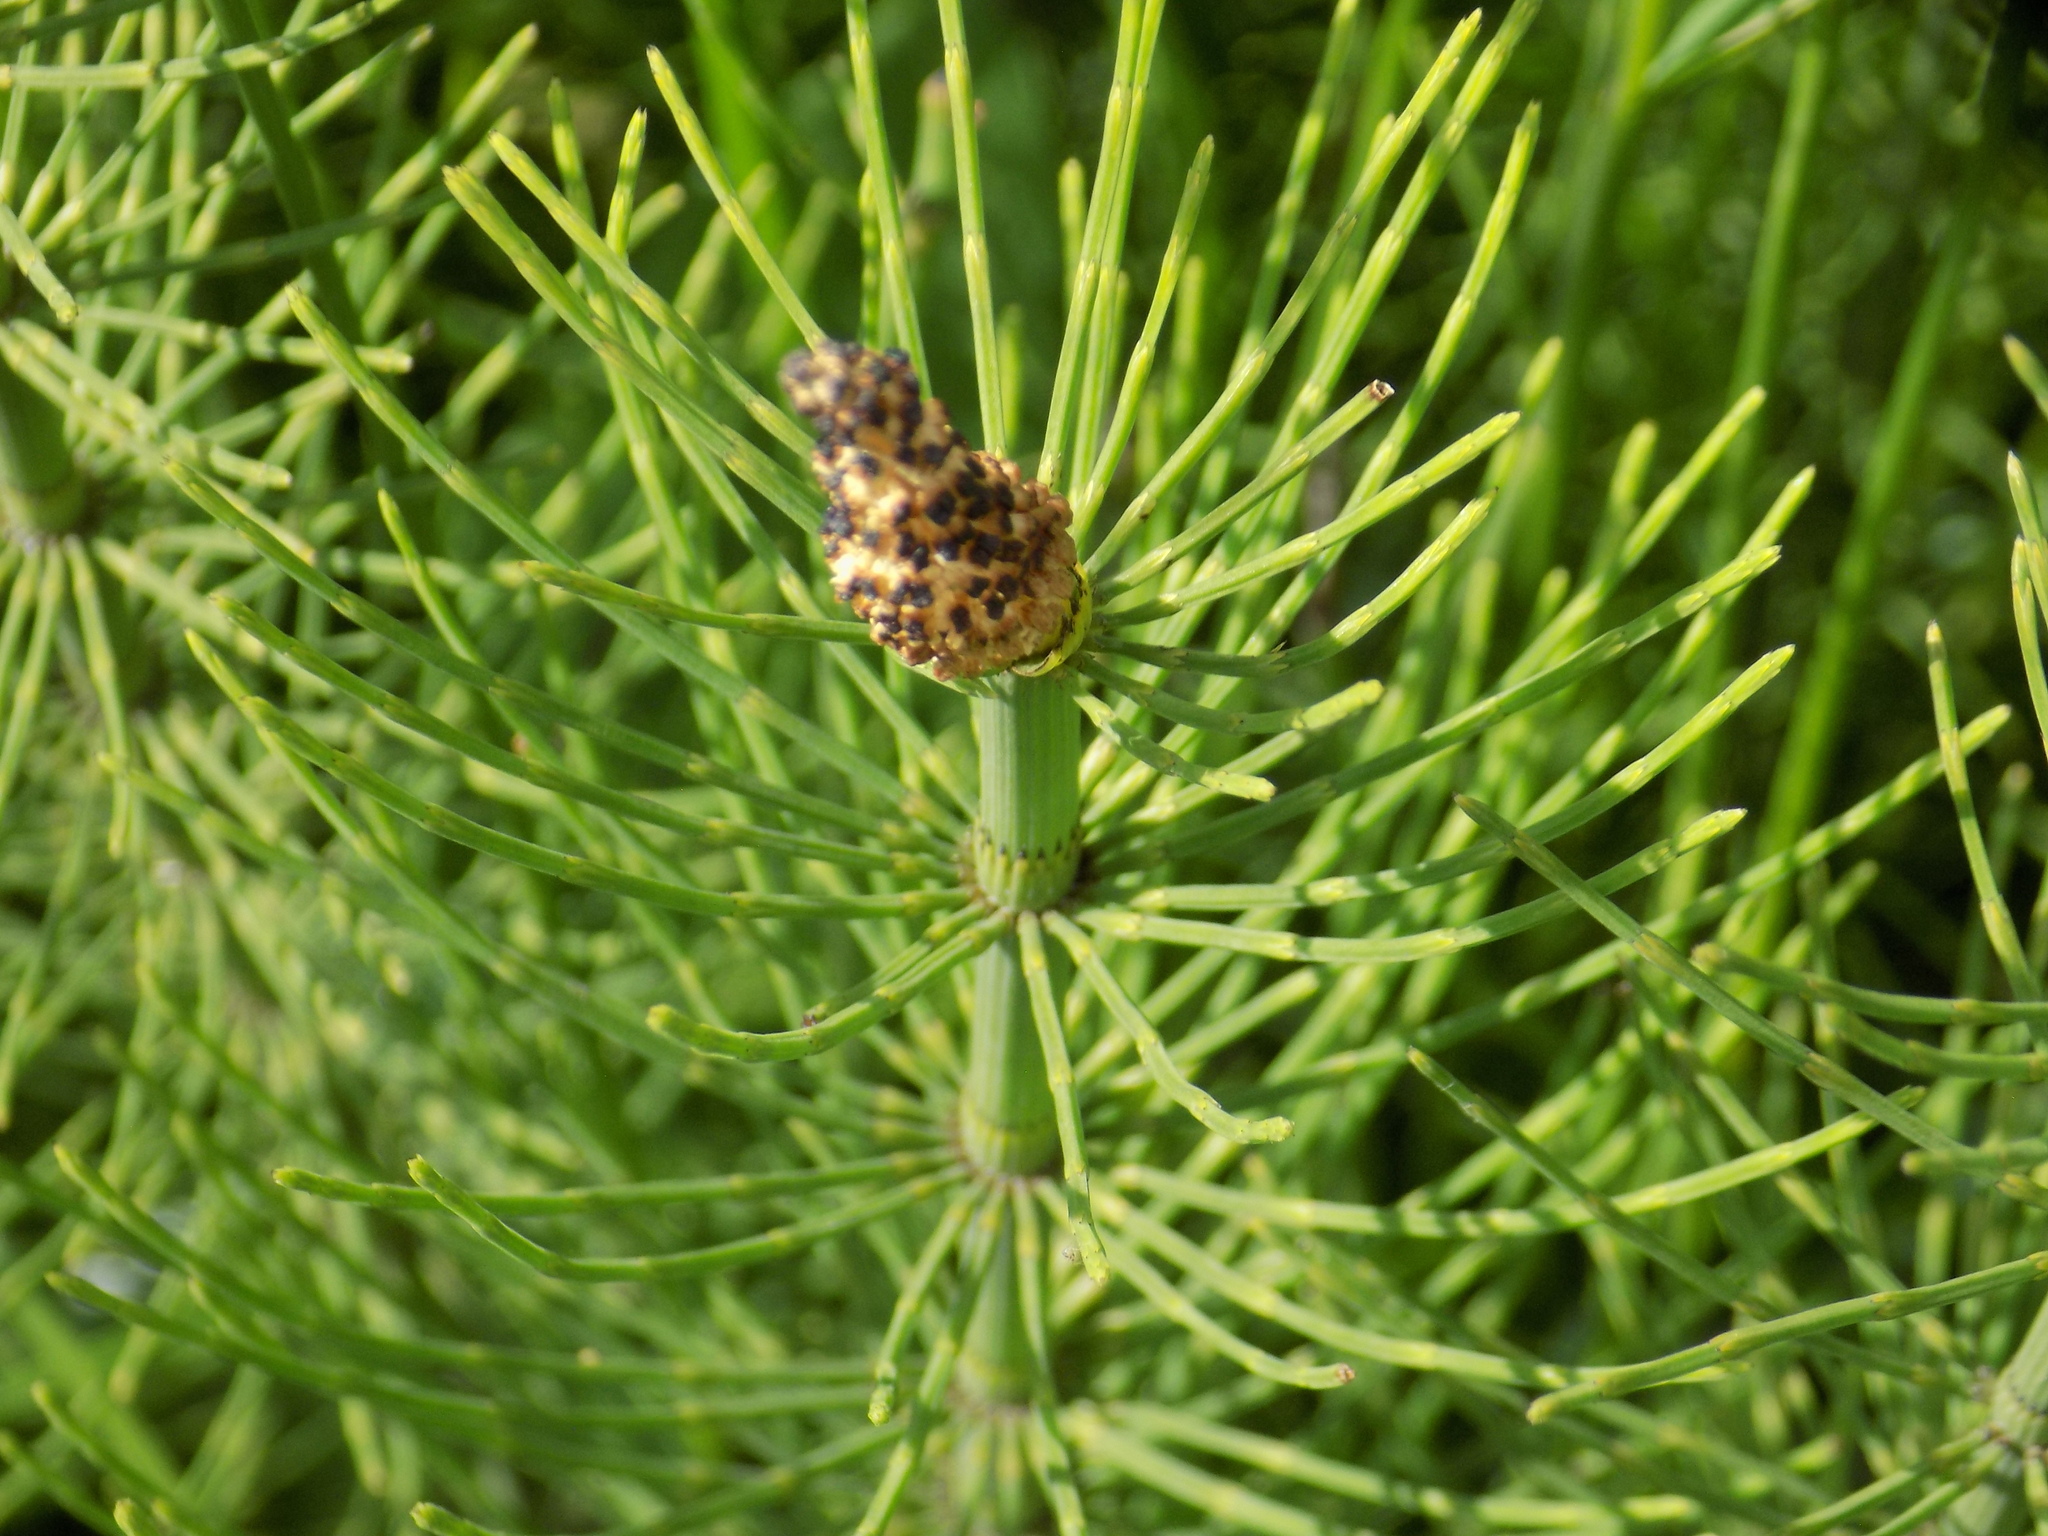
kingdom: Plantae
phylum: Tracheophyta
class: Polypodiopsida
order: Equisetales
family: Equisetaceae
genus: Equisetum
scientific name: Equisetum fluviatile
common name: Water horsetail
